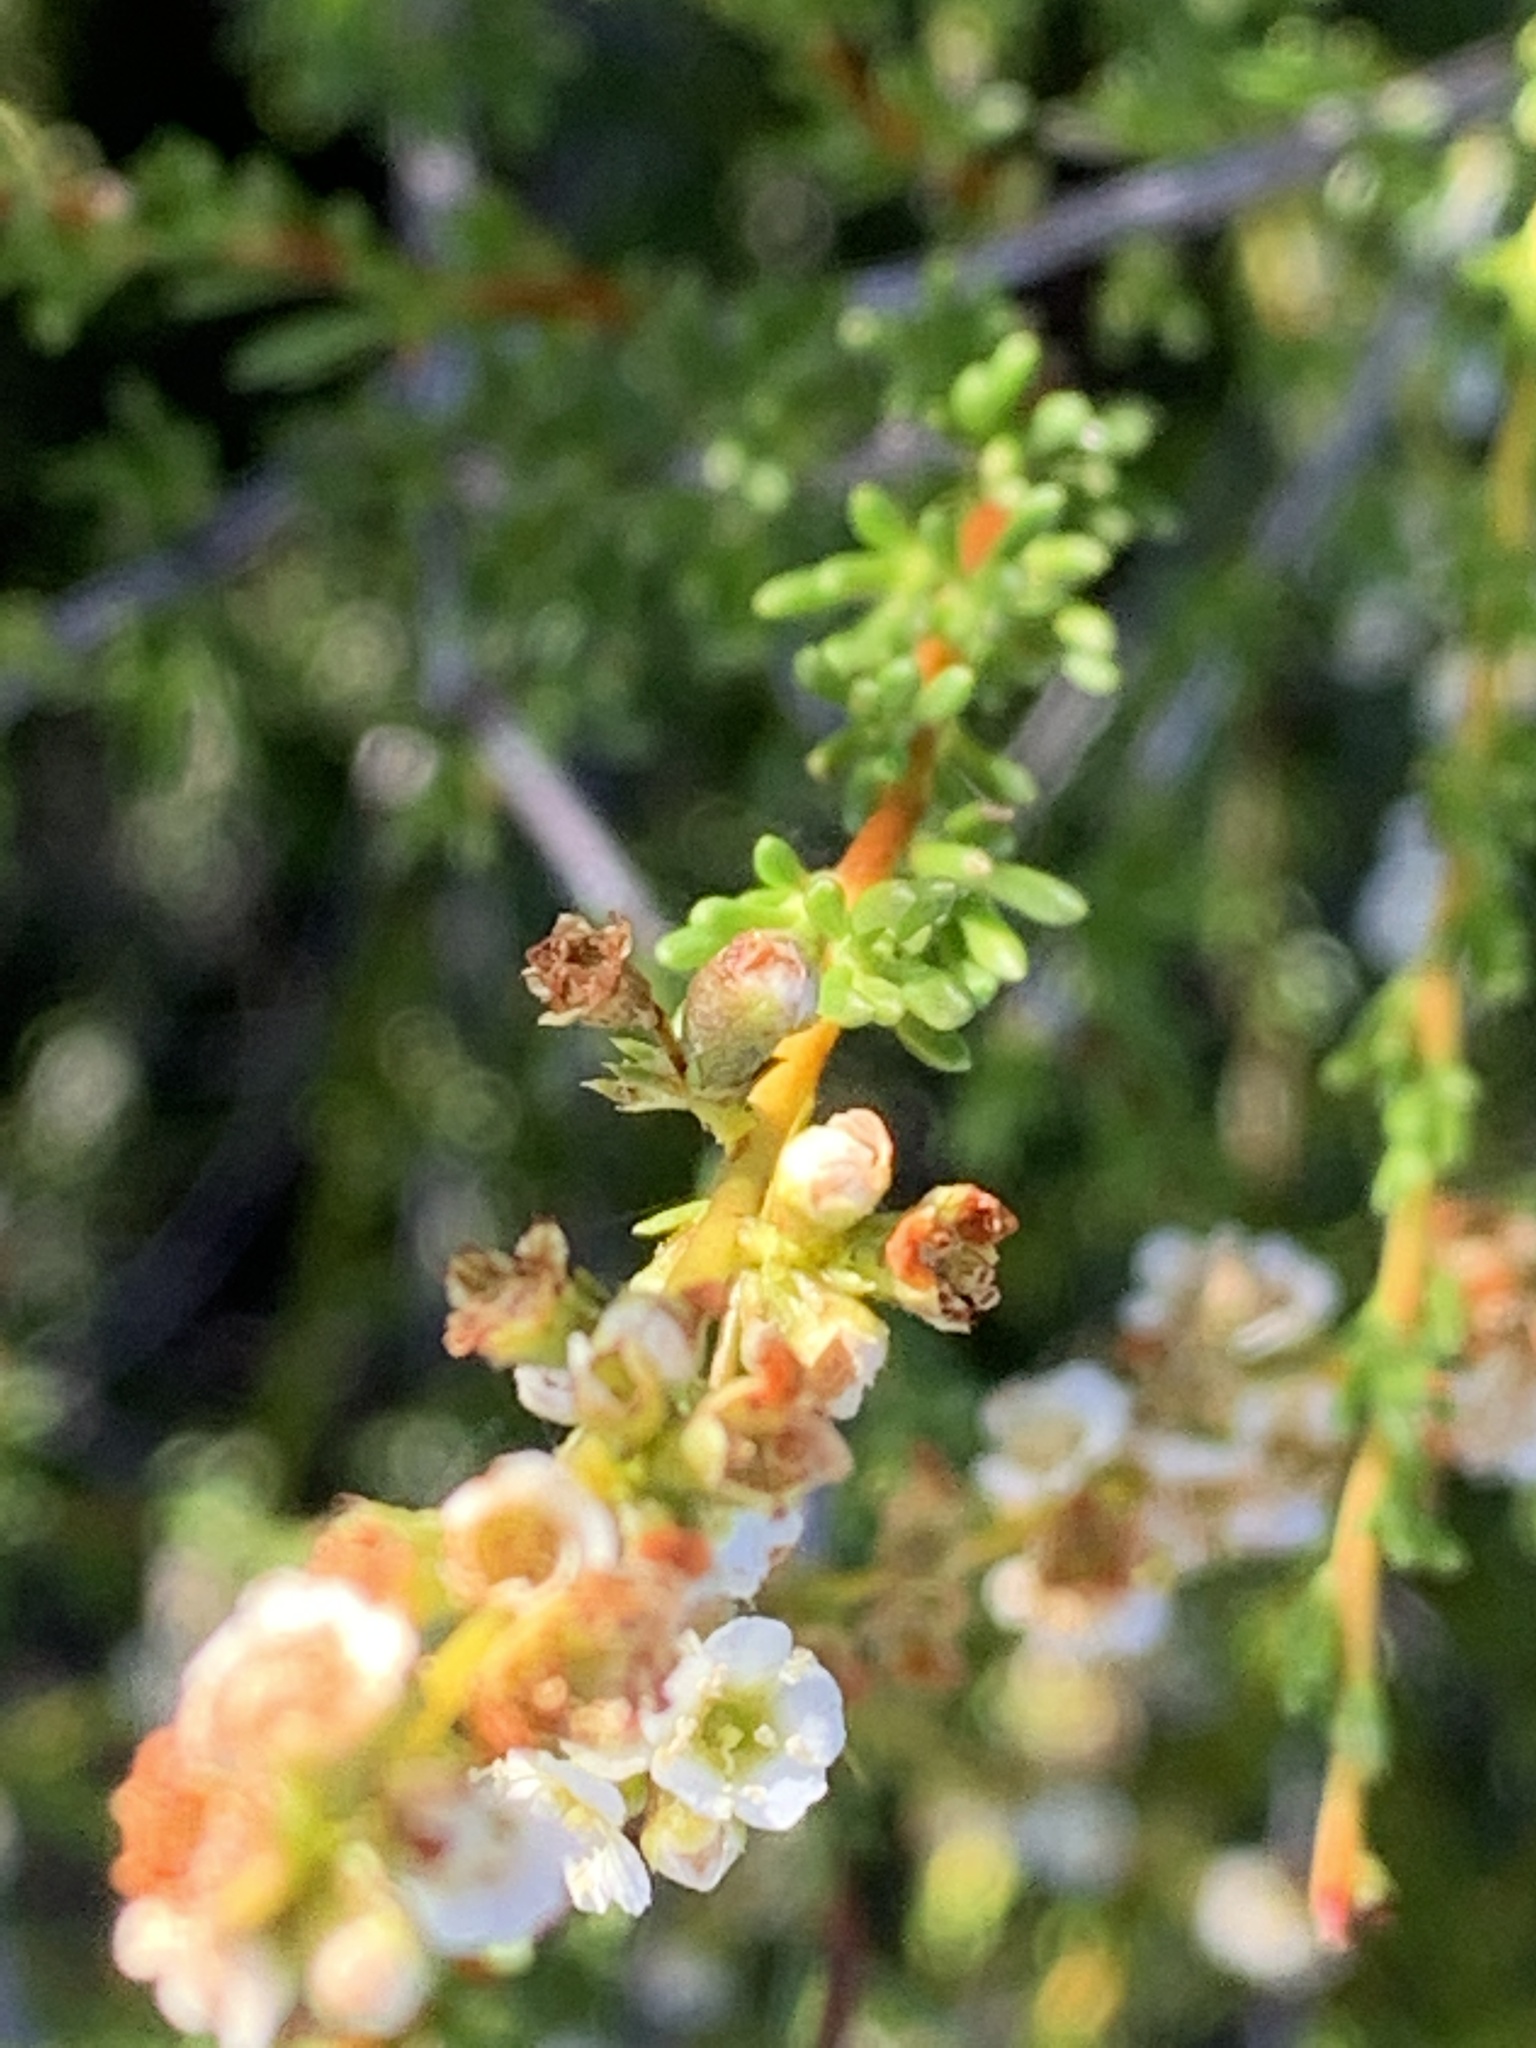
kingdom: Plantae
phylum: Tracheophyta
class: Magnoliopsida
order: Rosales
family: Rosaceae
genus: Adenostoma
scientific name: Adenostoma fasciculatum
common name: Chamise
